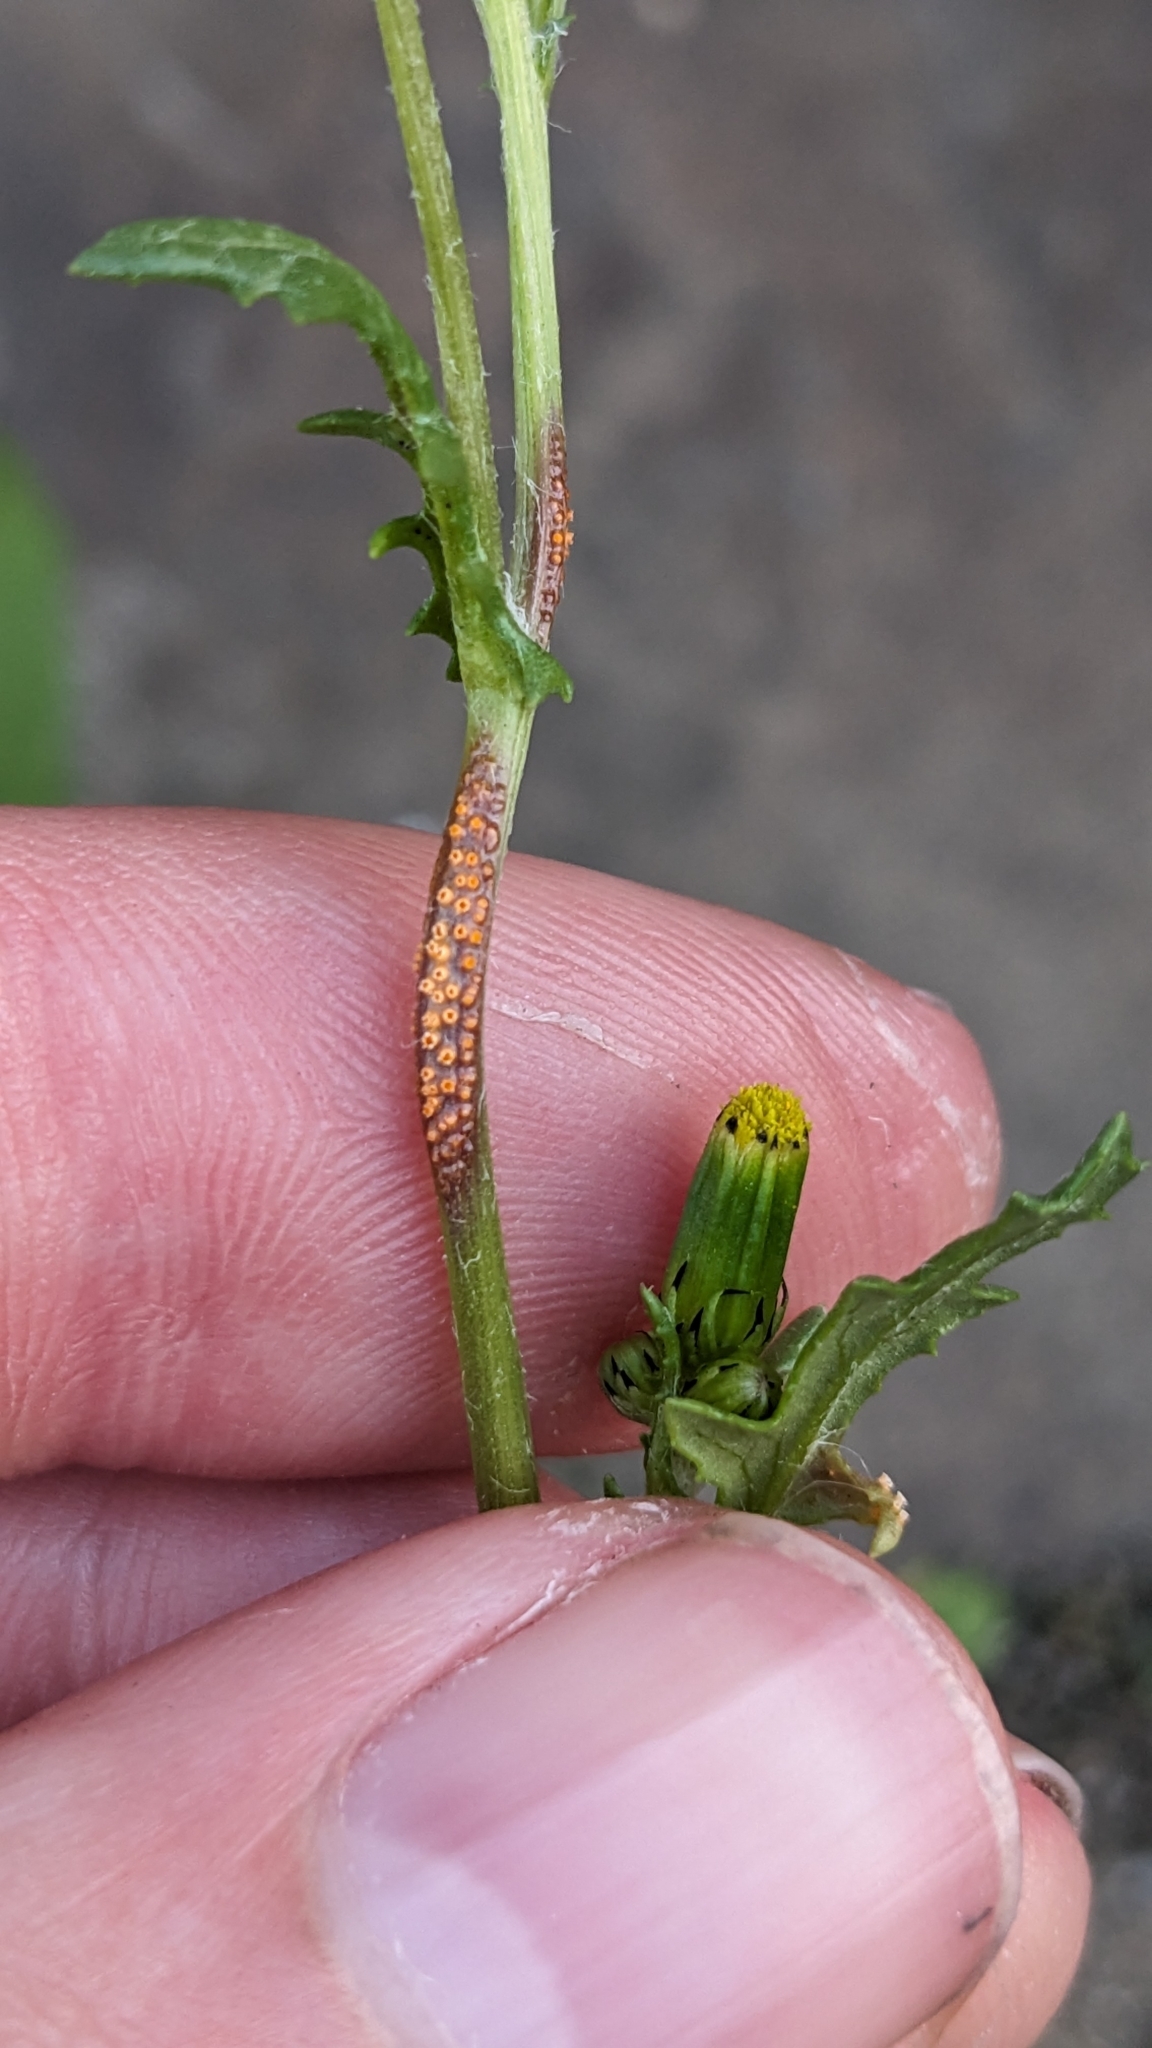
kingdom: Fungi
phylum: Basidiomycota
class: Pucciniomycetes
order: Pucciniales
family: Pucciniaceae
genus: Puccinia
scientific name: Puccinia lagenophorae
